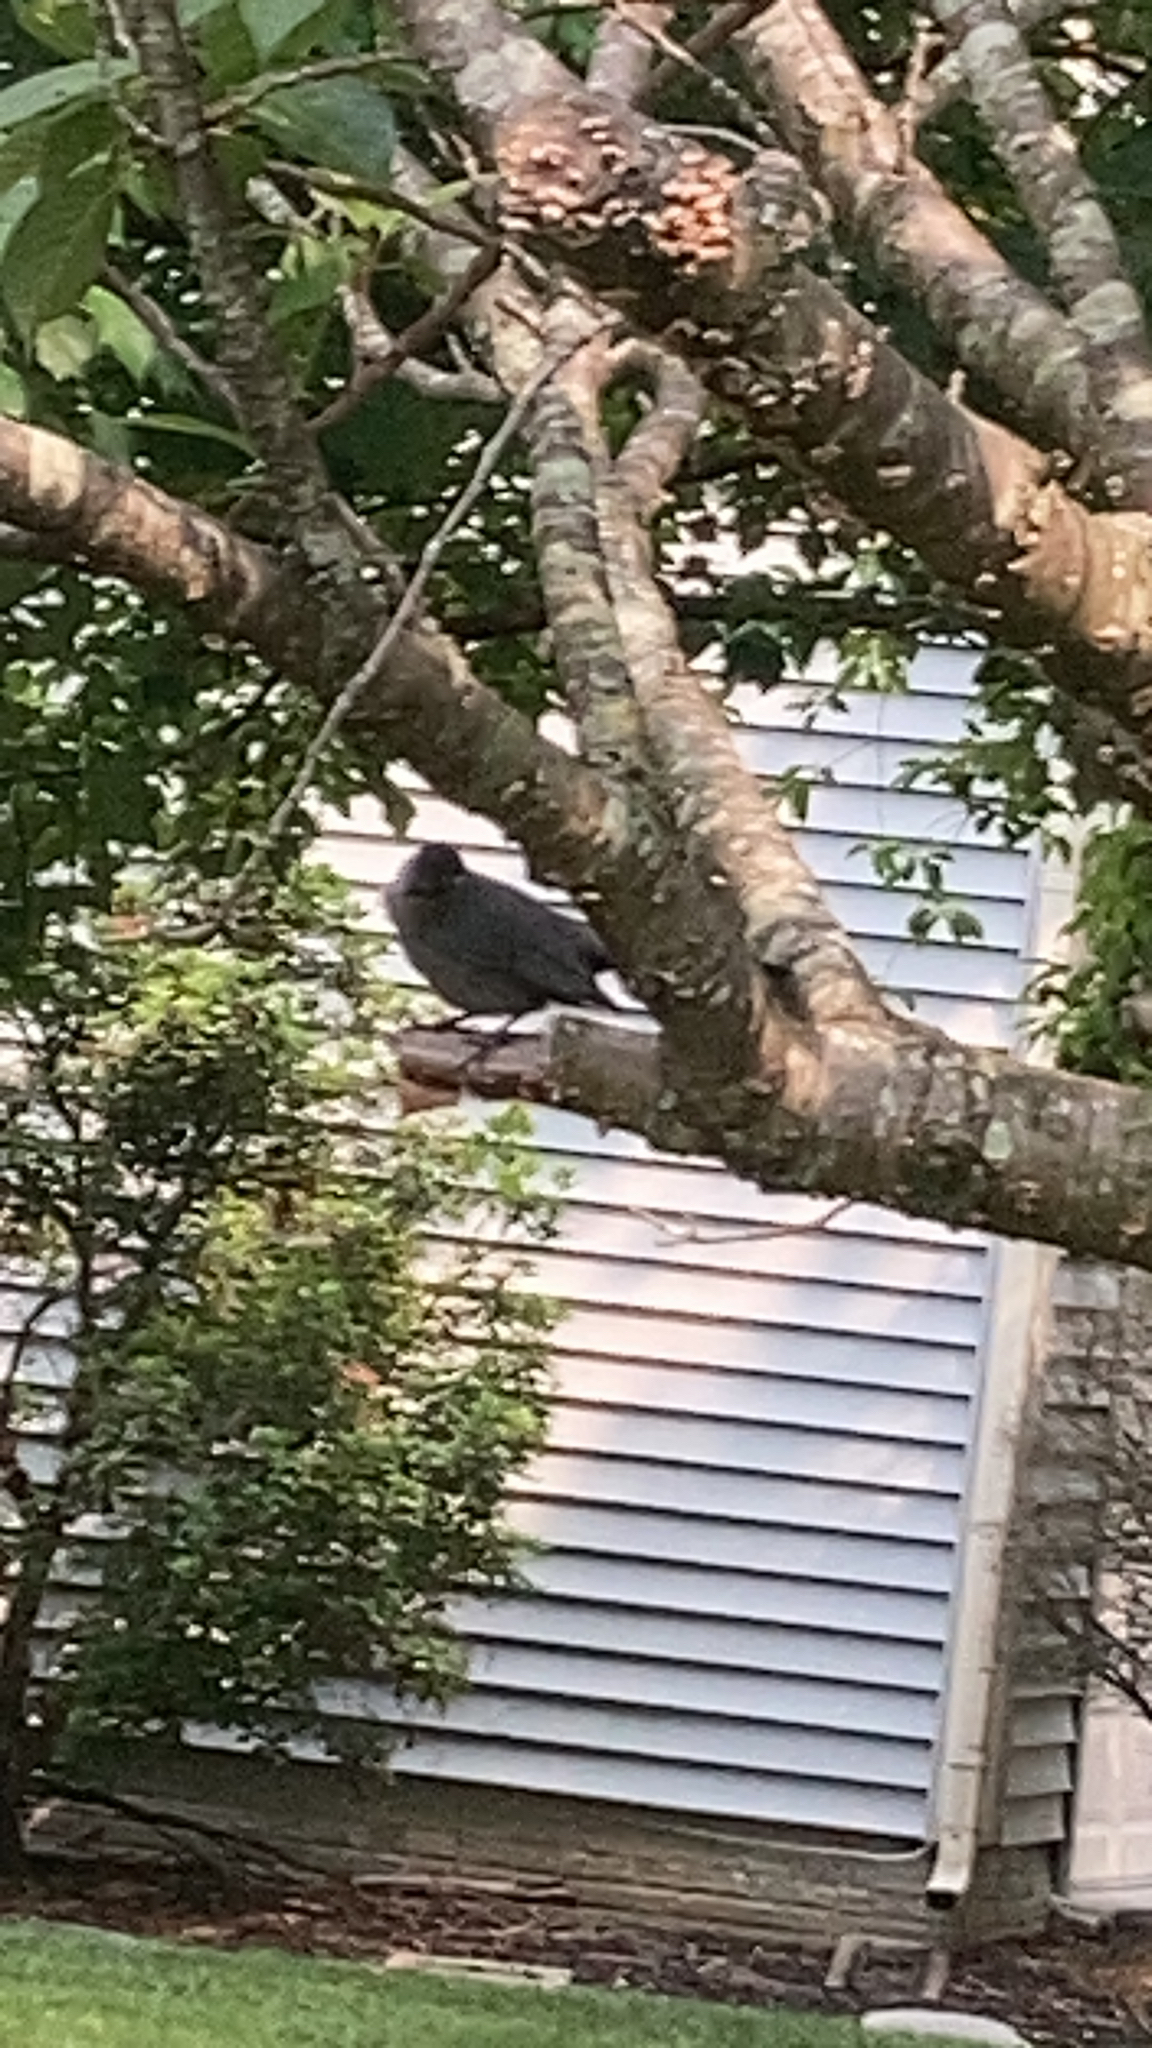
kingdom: Animalia
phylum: Chordata
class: Aves
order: Passeriformes
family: Mimidae
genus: Dumetella
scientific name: Dumetella carolinensis
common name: Gray catbird
